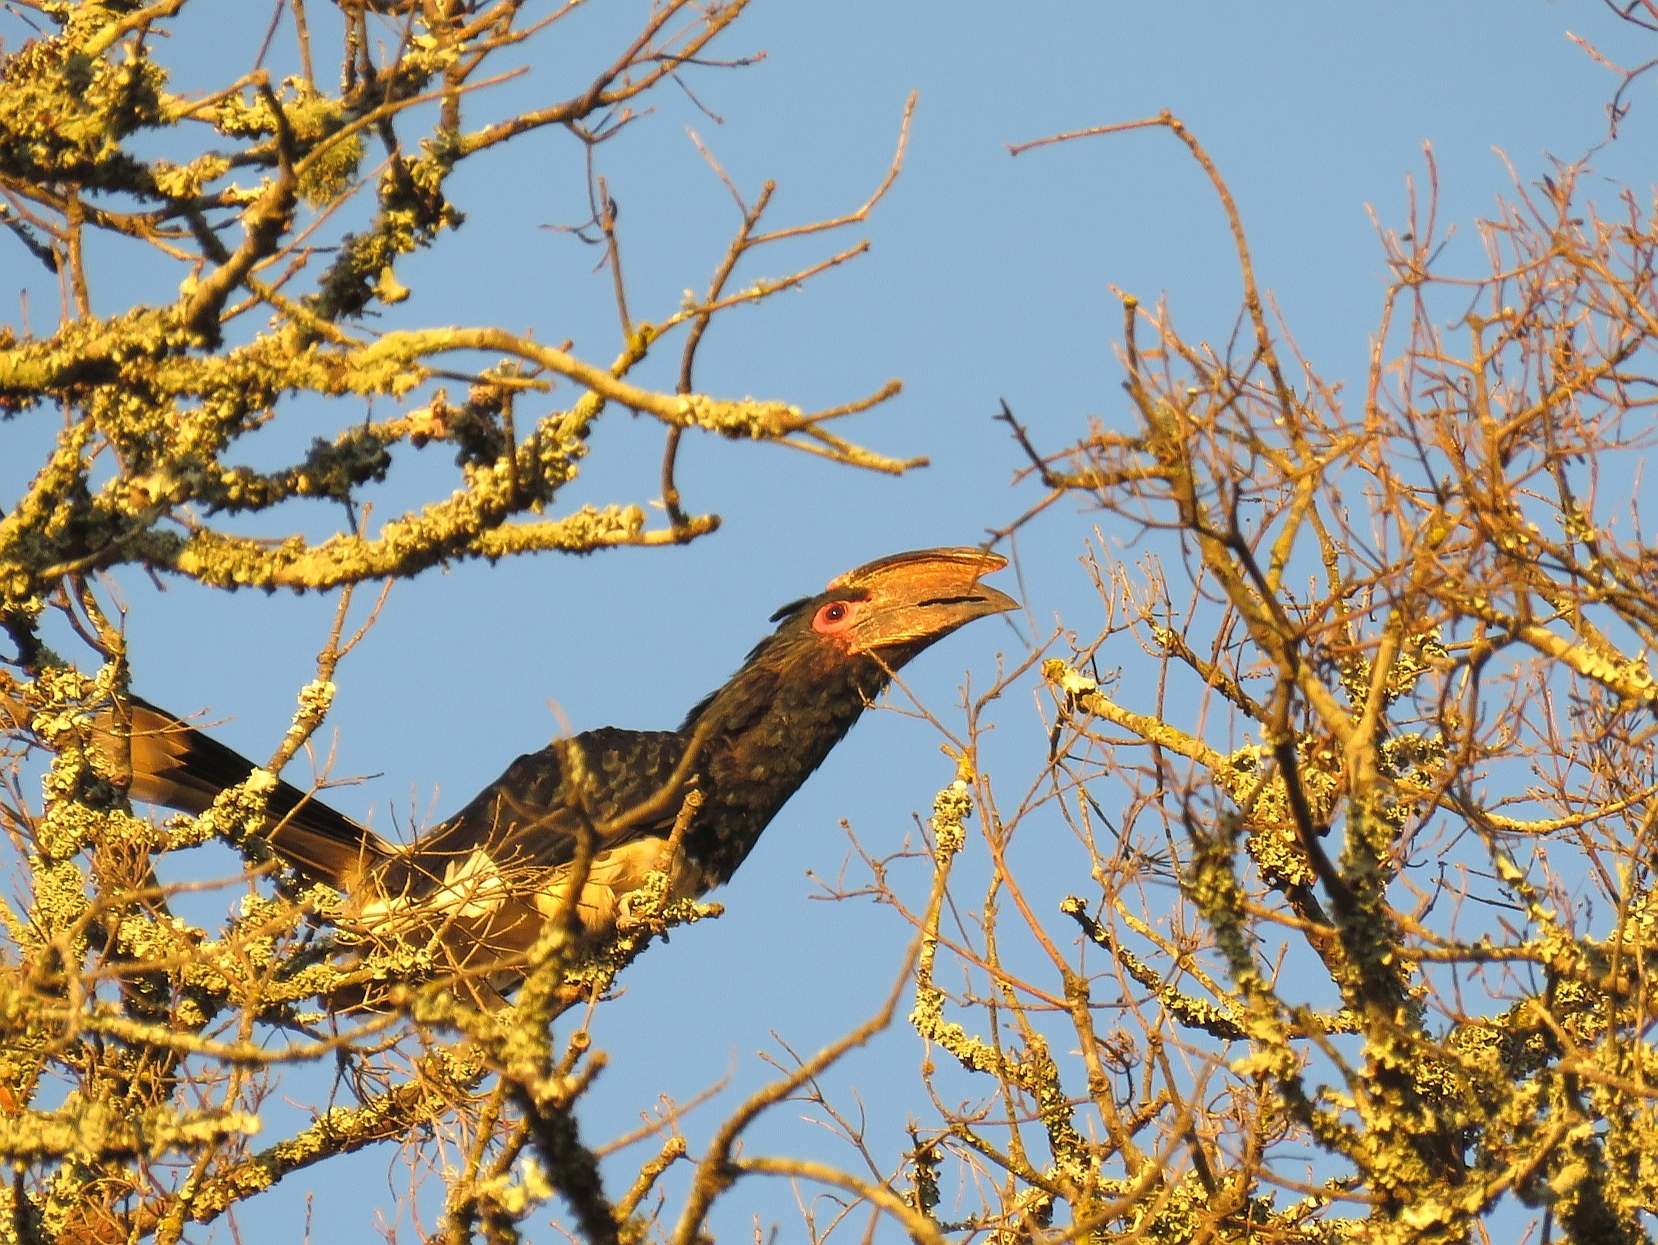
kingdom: Animalia
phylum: Chordata
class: Aves
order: Bucerotiformes
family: Bucerotidae
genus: Bycanistes
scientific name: Bycanistes bucinator
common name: Trumpeter hornbill
